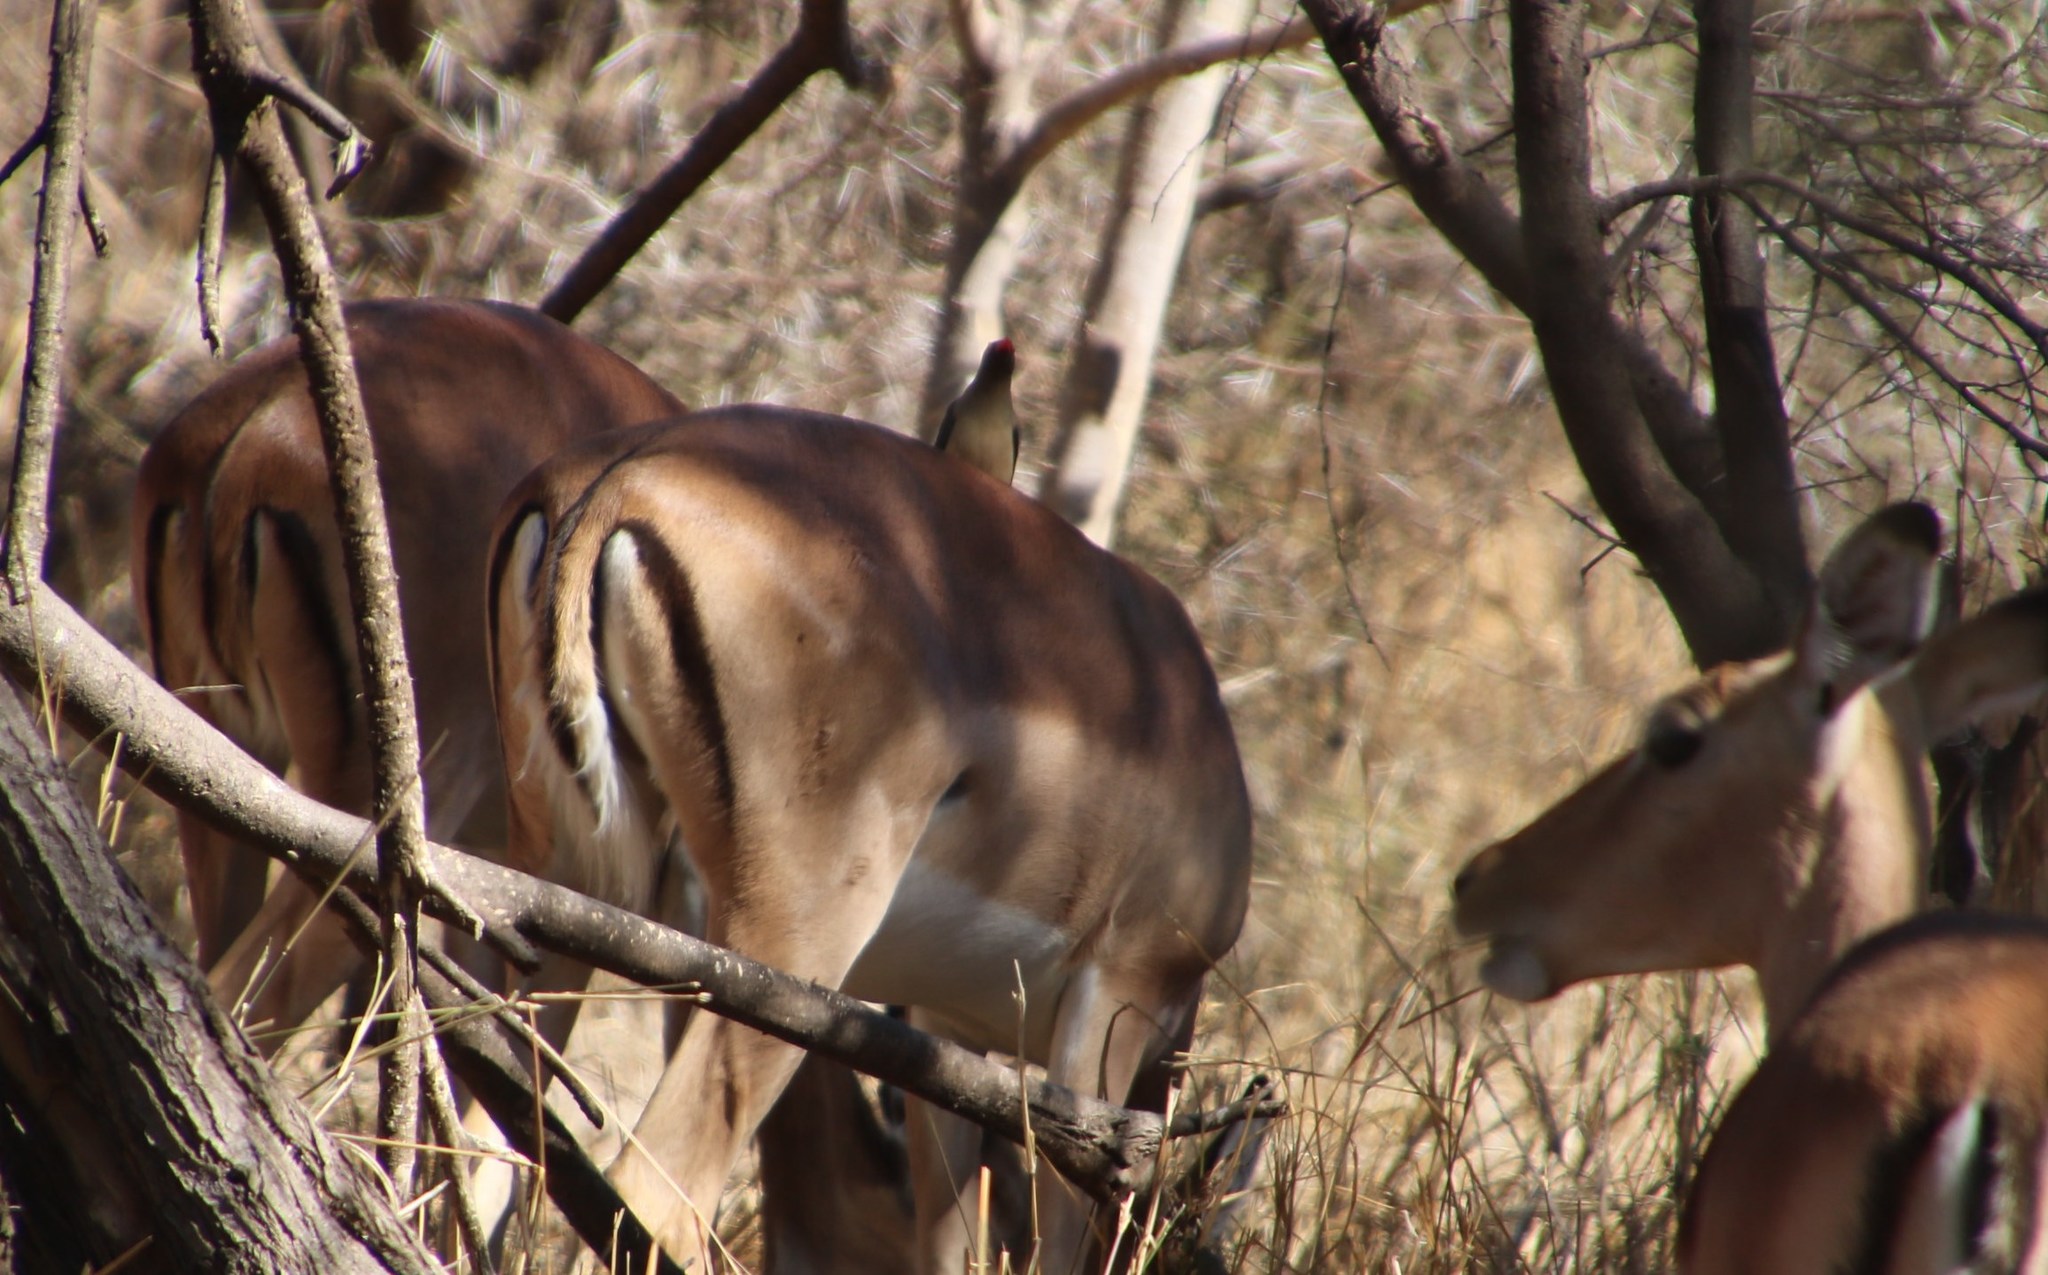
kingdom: Animalia
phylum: Chordata
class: Aves
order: Passeriformes
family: Buphagidae
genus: Buphagus
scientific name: Buphagus erythrorhynchus
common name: Red-billed oxpecker
